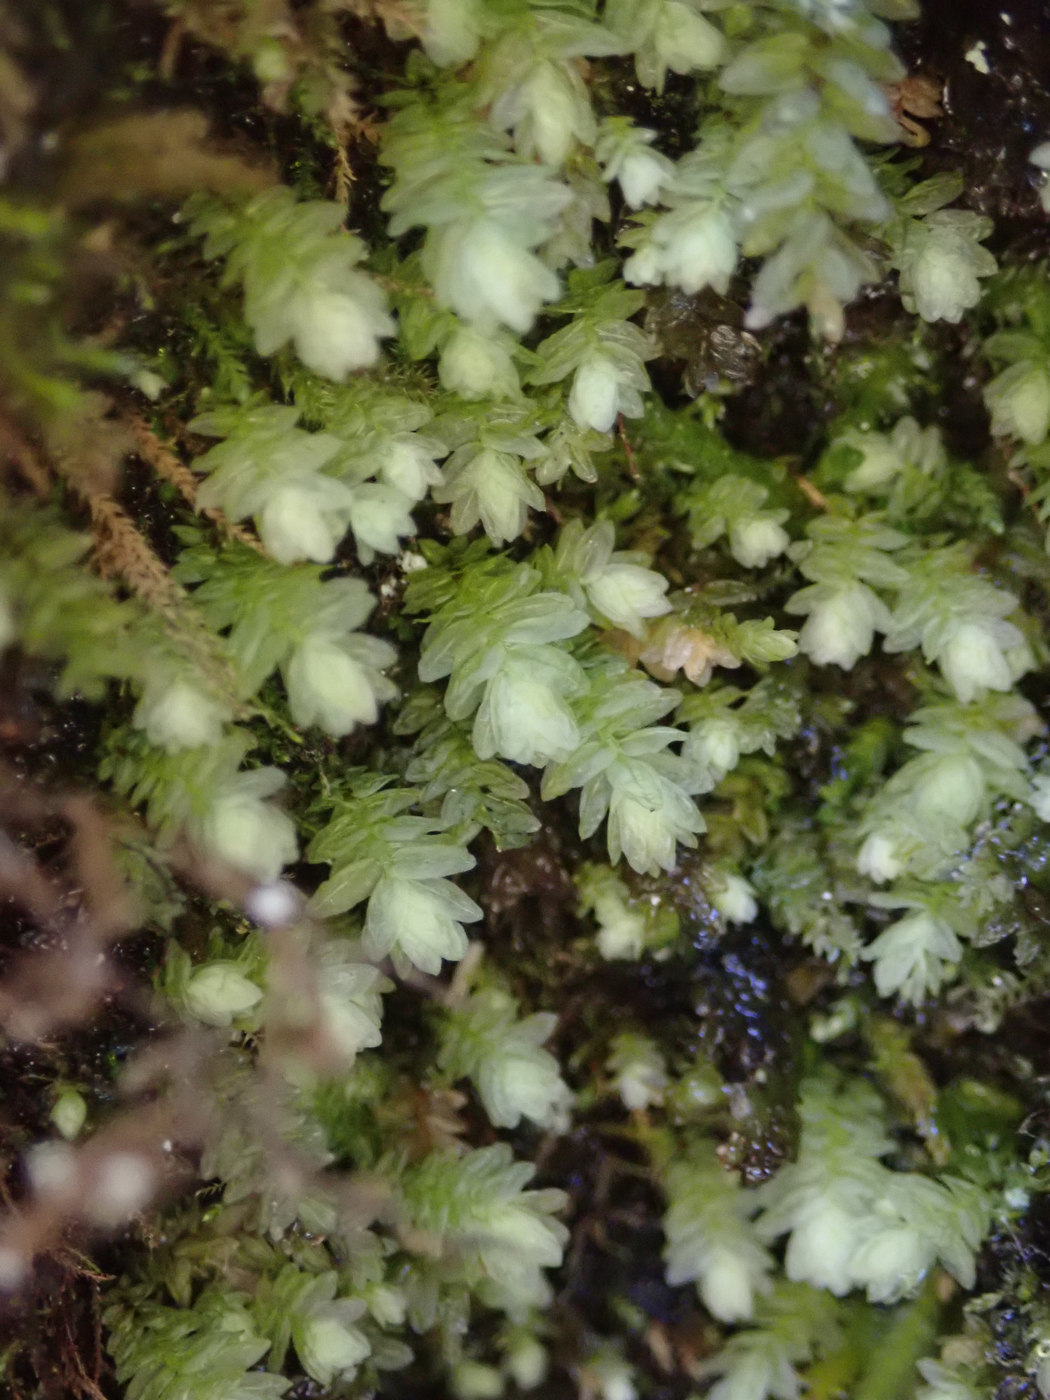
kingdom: Plantae
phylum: Bryophyta
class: Bryopsida
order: Aulacomniales
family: Aulacomniaceae
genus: Aulacomnium
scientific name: Aulacomnium heterostichum
